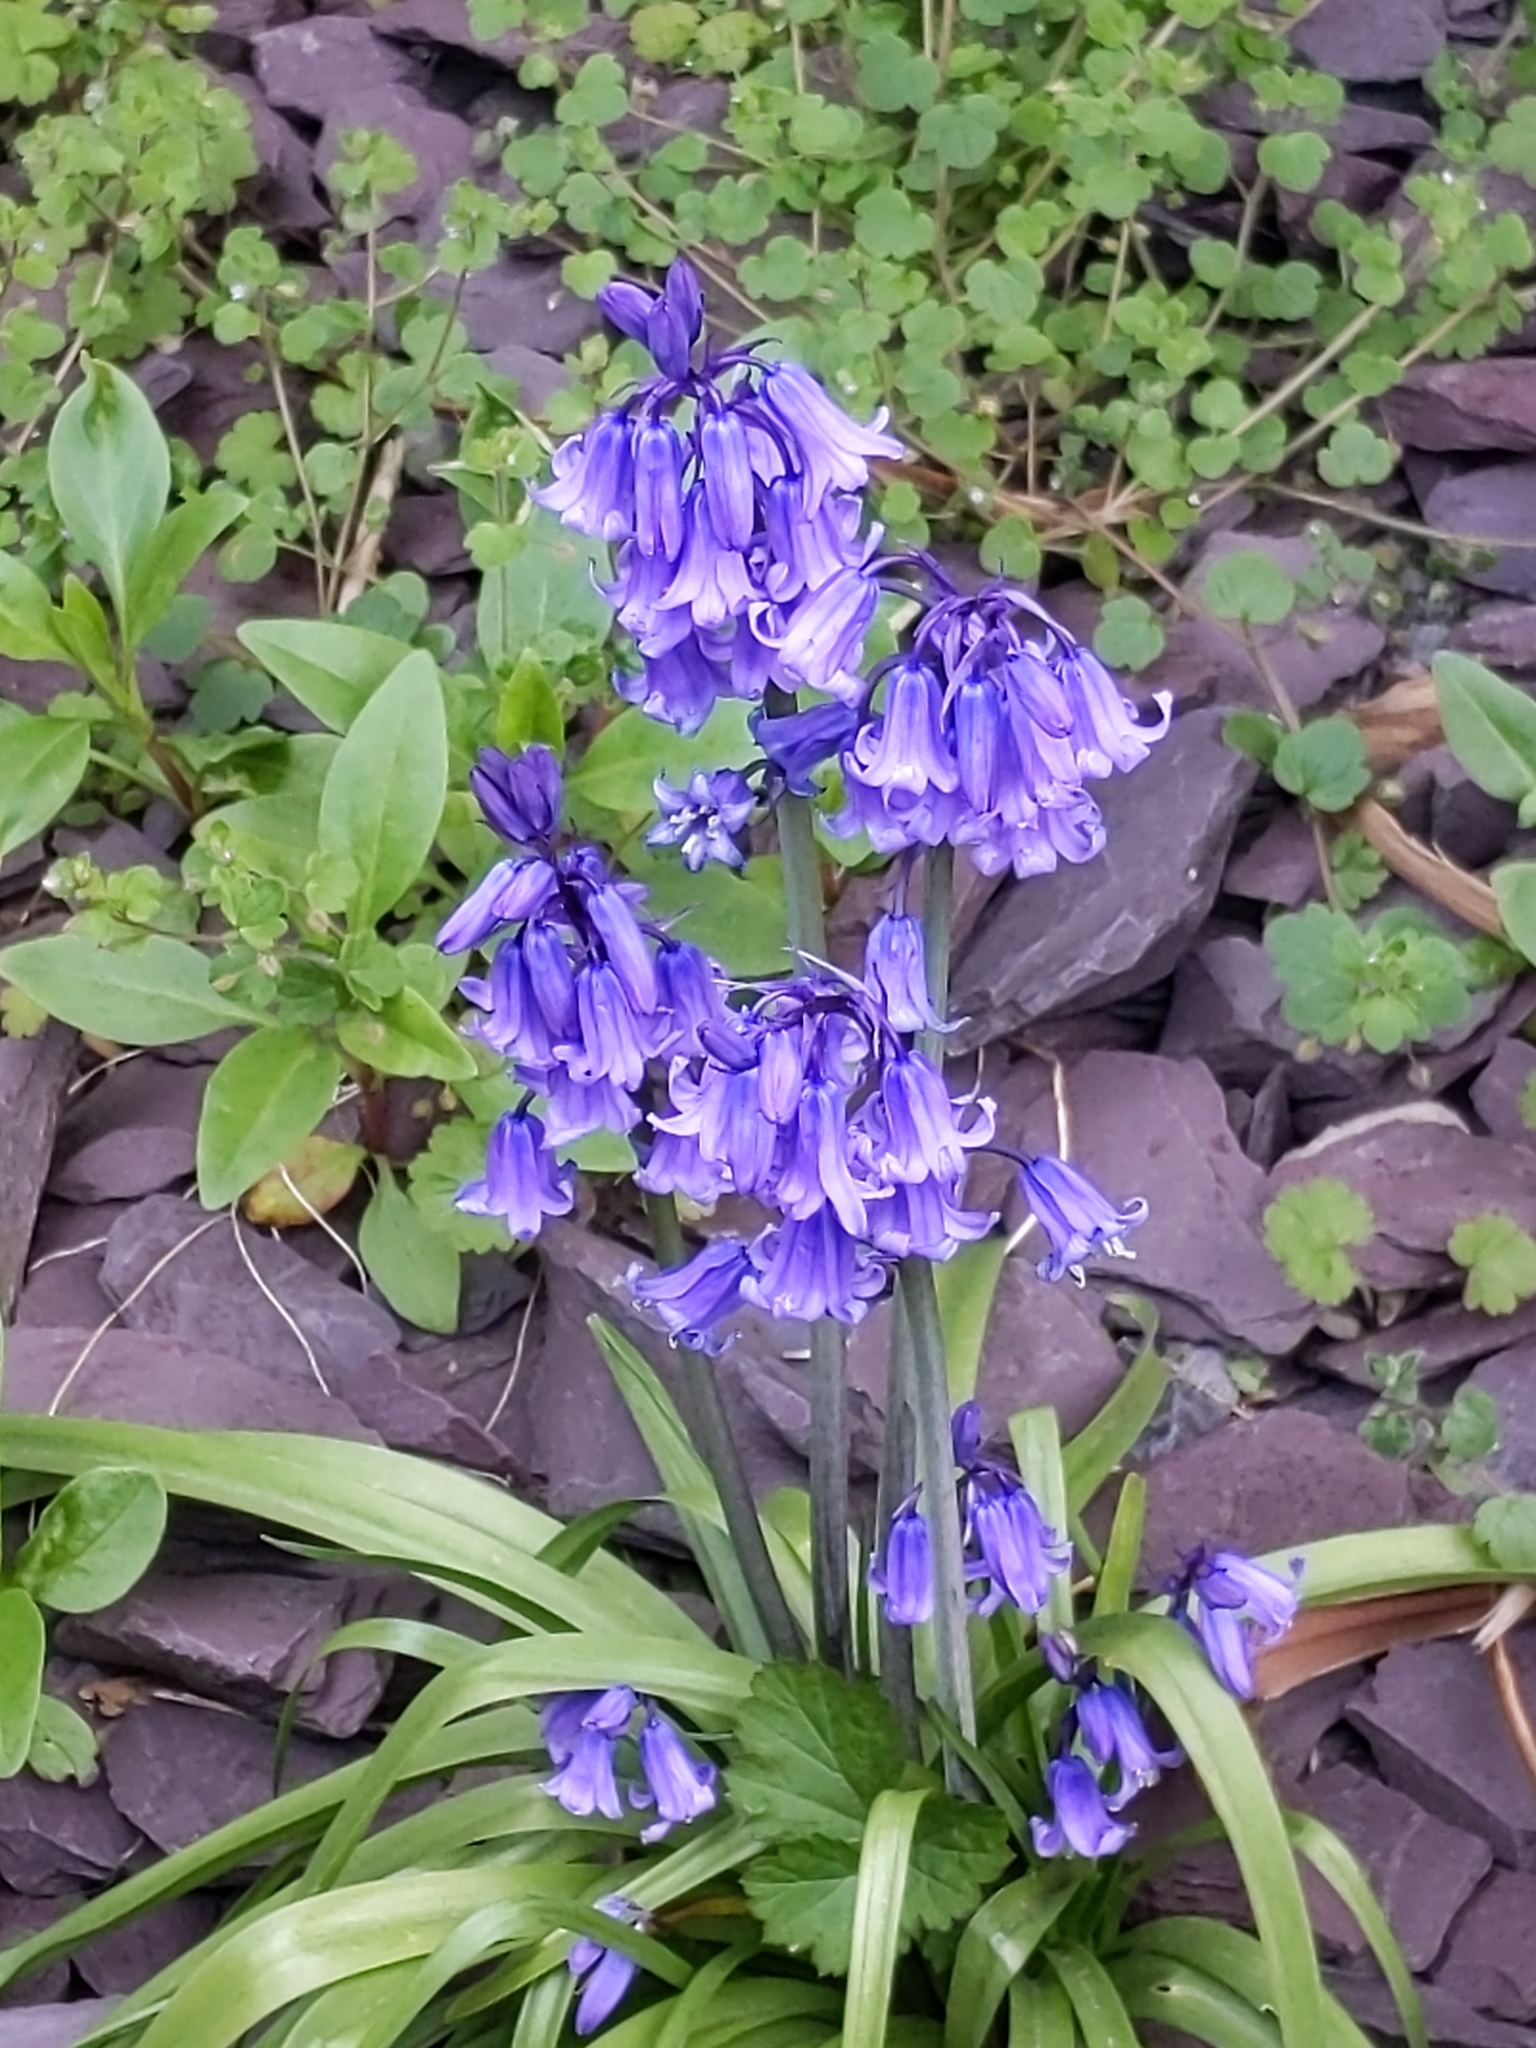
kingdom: Plantae
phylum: Tracheophyta
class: Liliopsida
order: Asparagales
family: Asparagaceae
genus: Hyacinthoides
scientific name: Hyacinthoides massartiana
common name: Hyacinthoides
